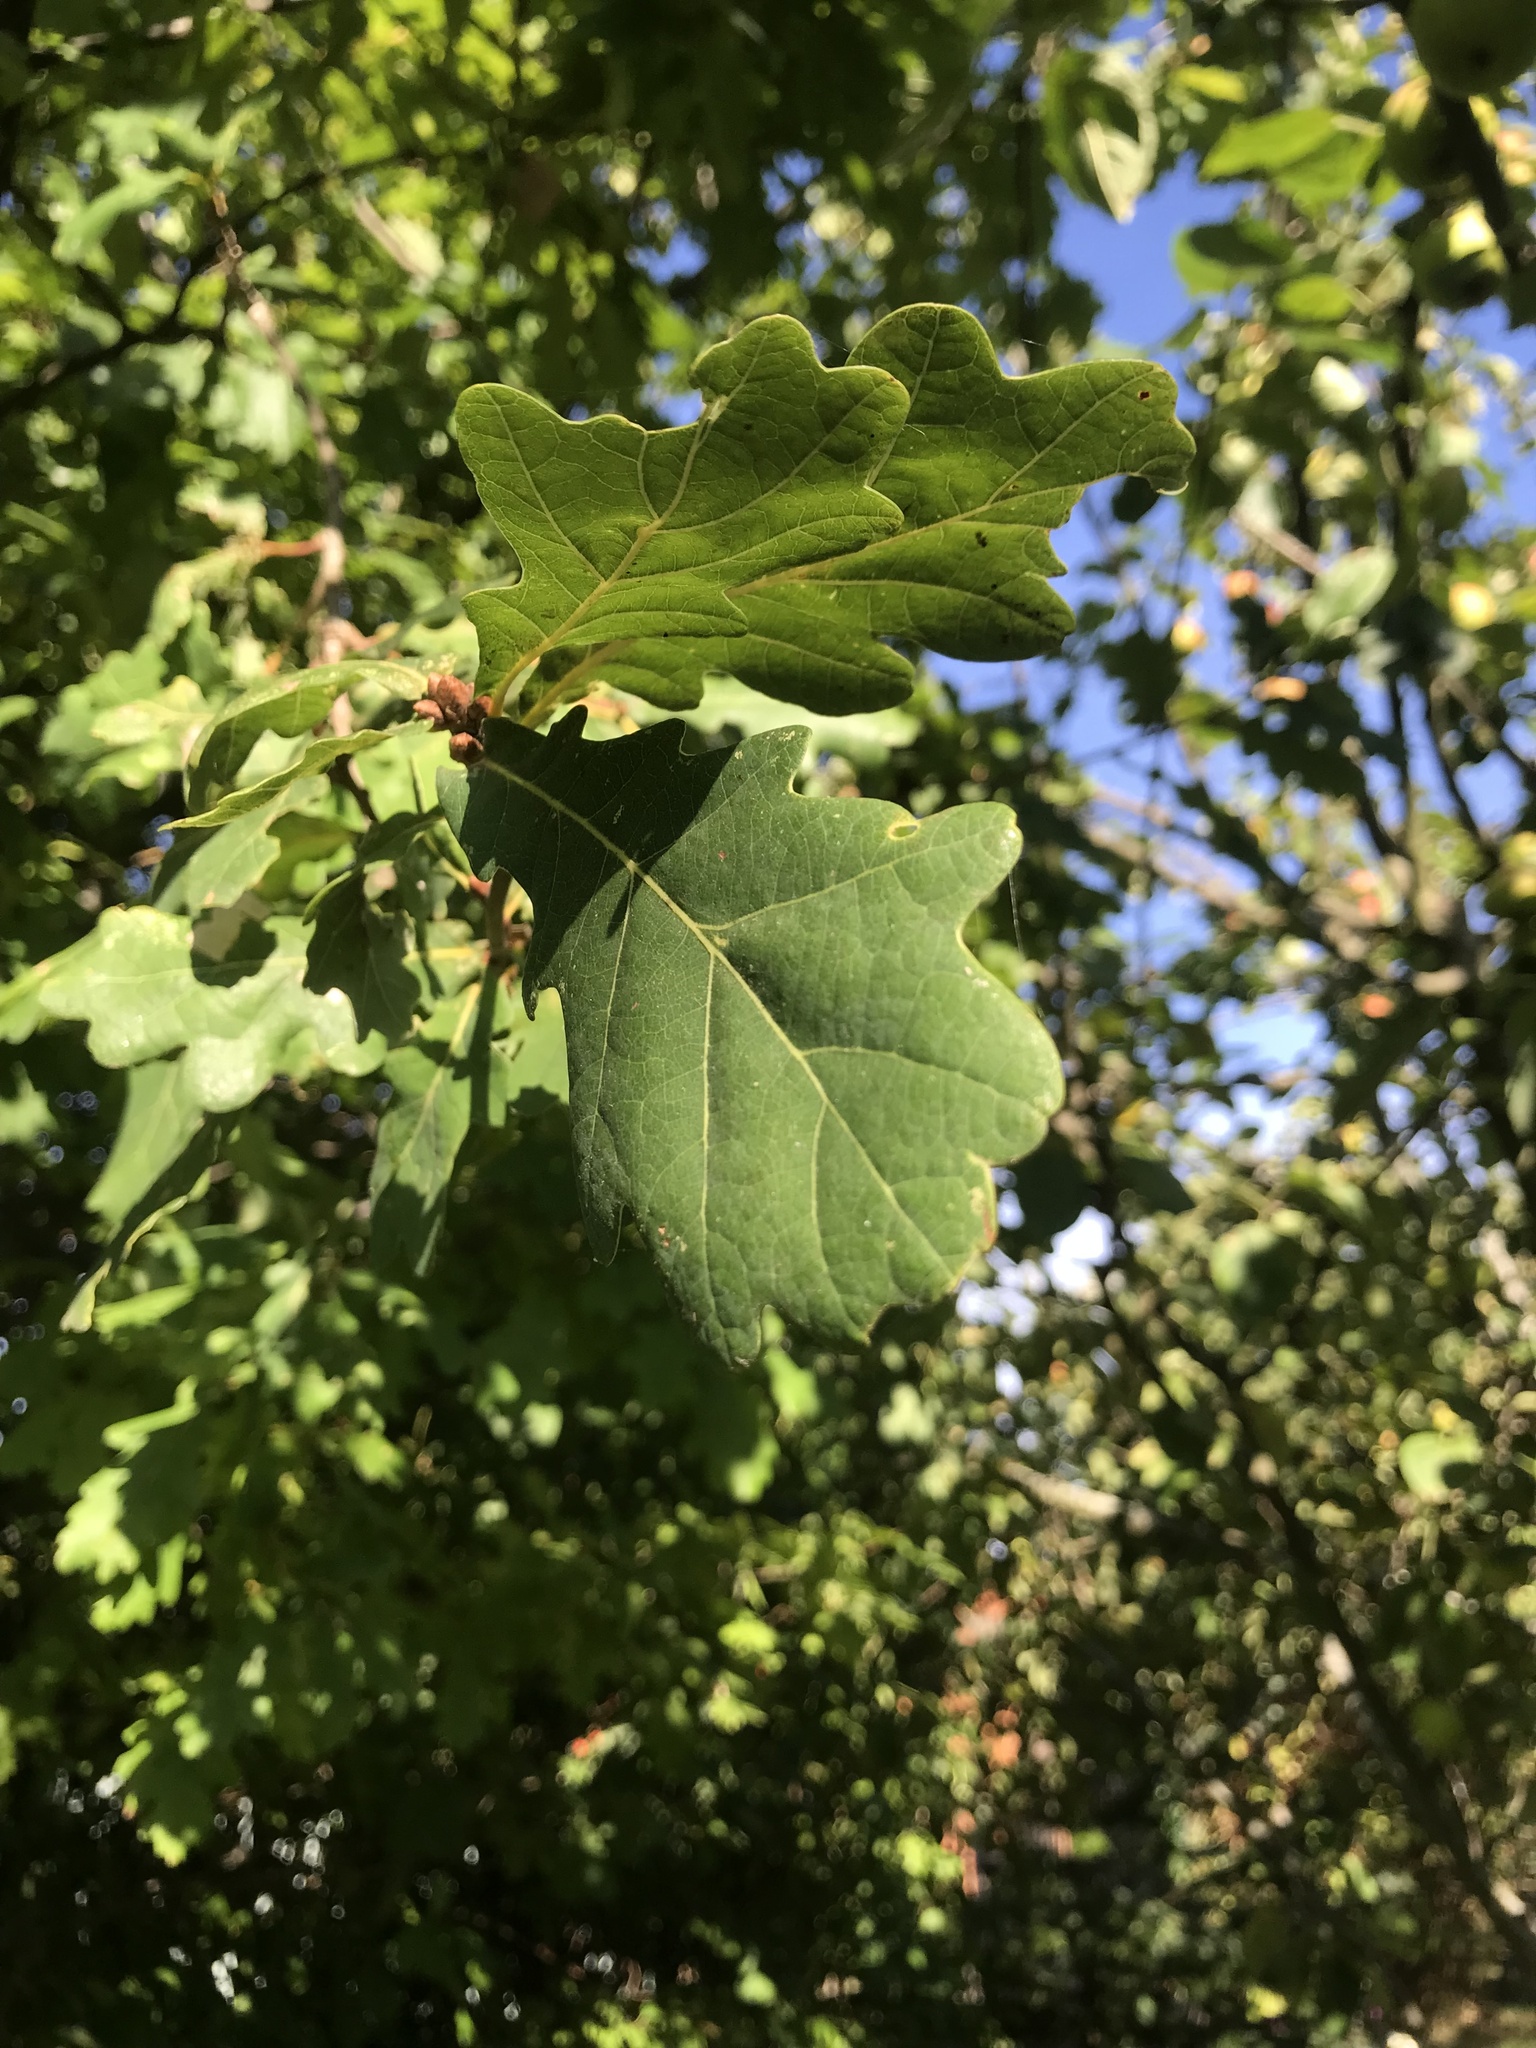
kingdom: Plantae
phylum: Tracheophyta
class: Magnoliopsida
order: Fagales
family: Fagaceae
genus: Quercus
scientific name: Quercus robur
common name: Pedunculate oak
